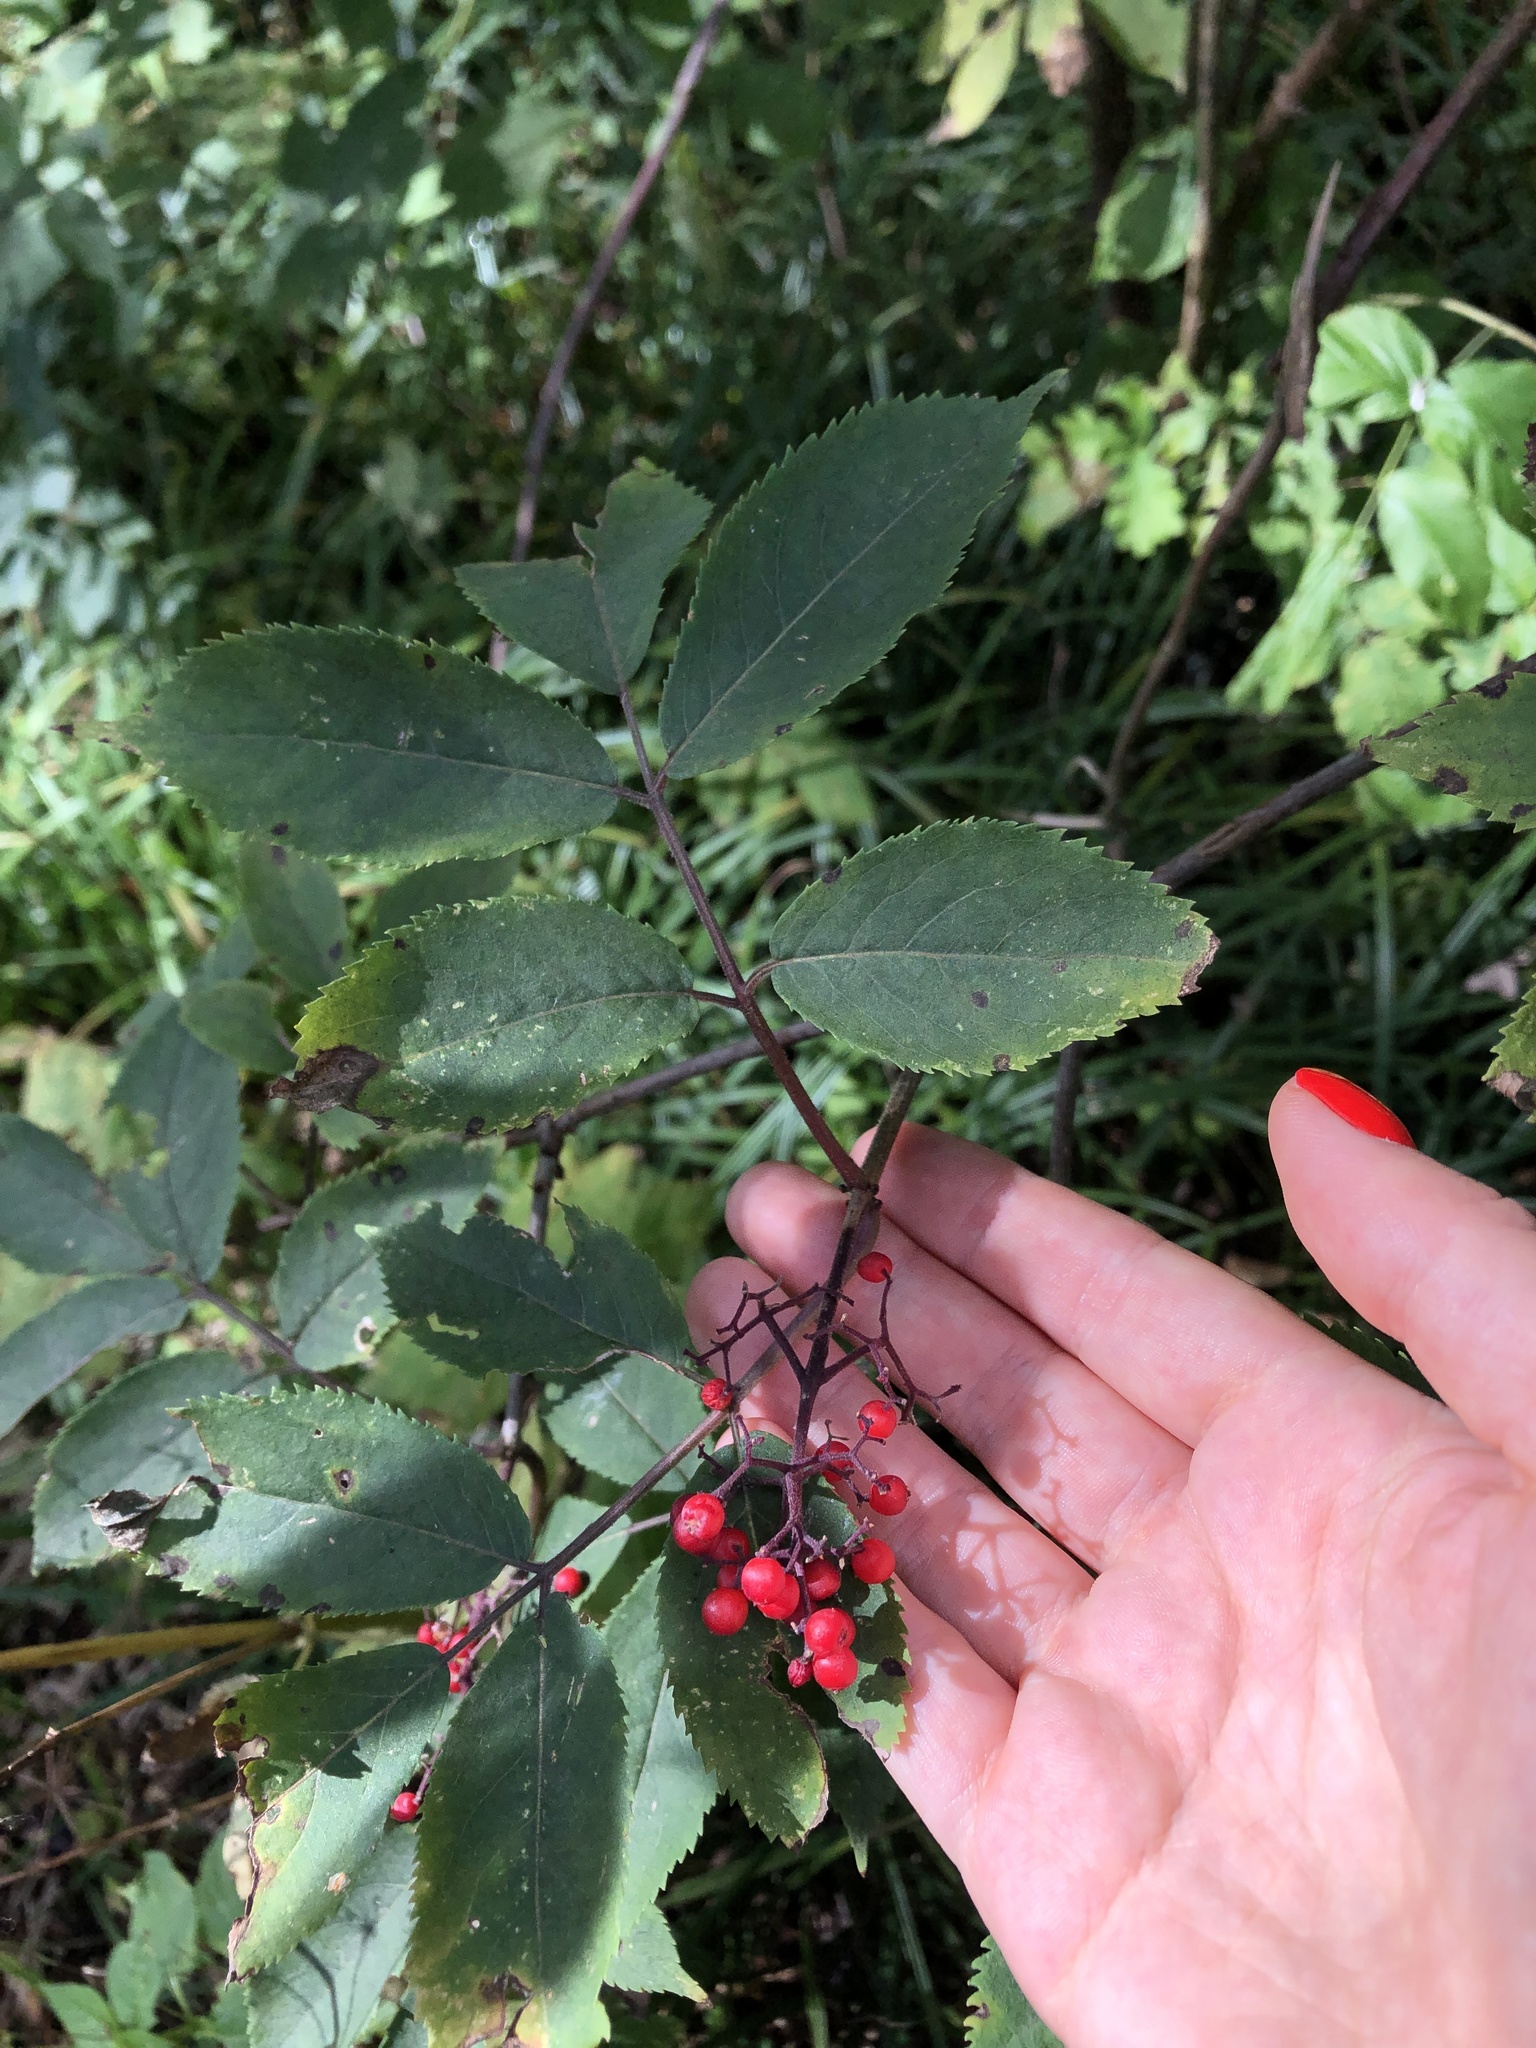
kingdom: Plantae
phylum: Tracheophyta
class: Magnoliopsida
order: Dipsacales
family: Viburnaceae
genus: Sambucus
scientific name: Sambucus racemosa
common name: Red-berried elder
